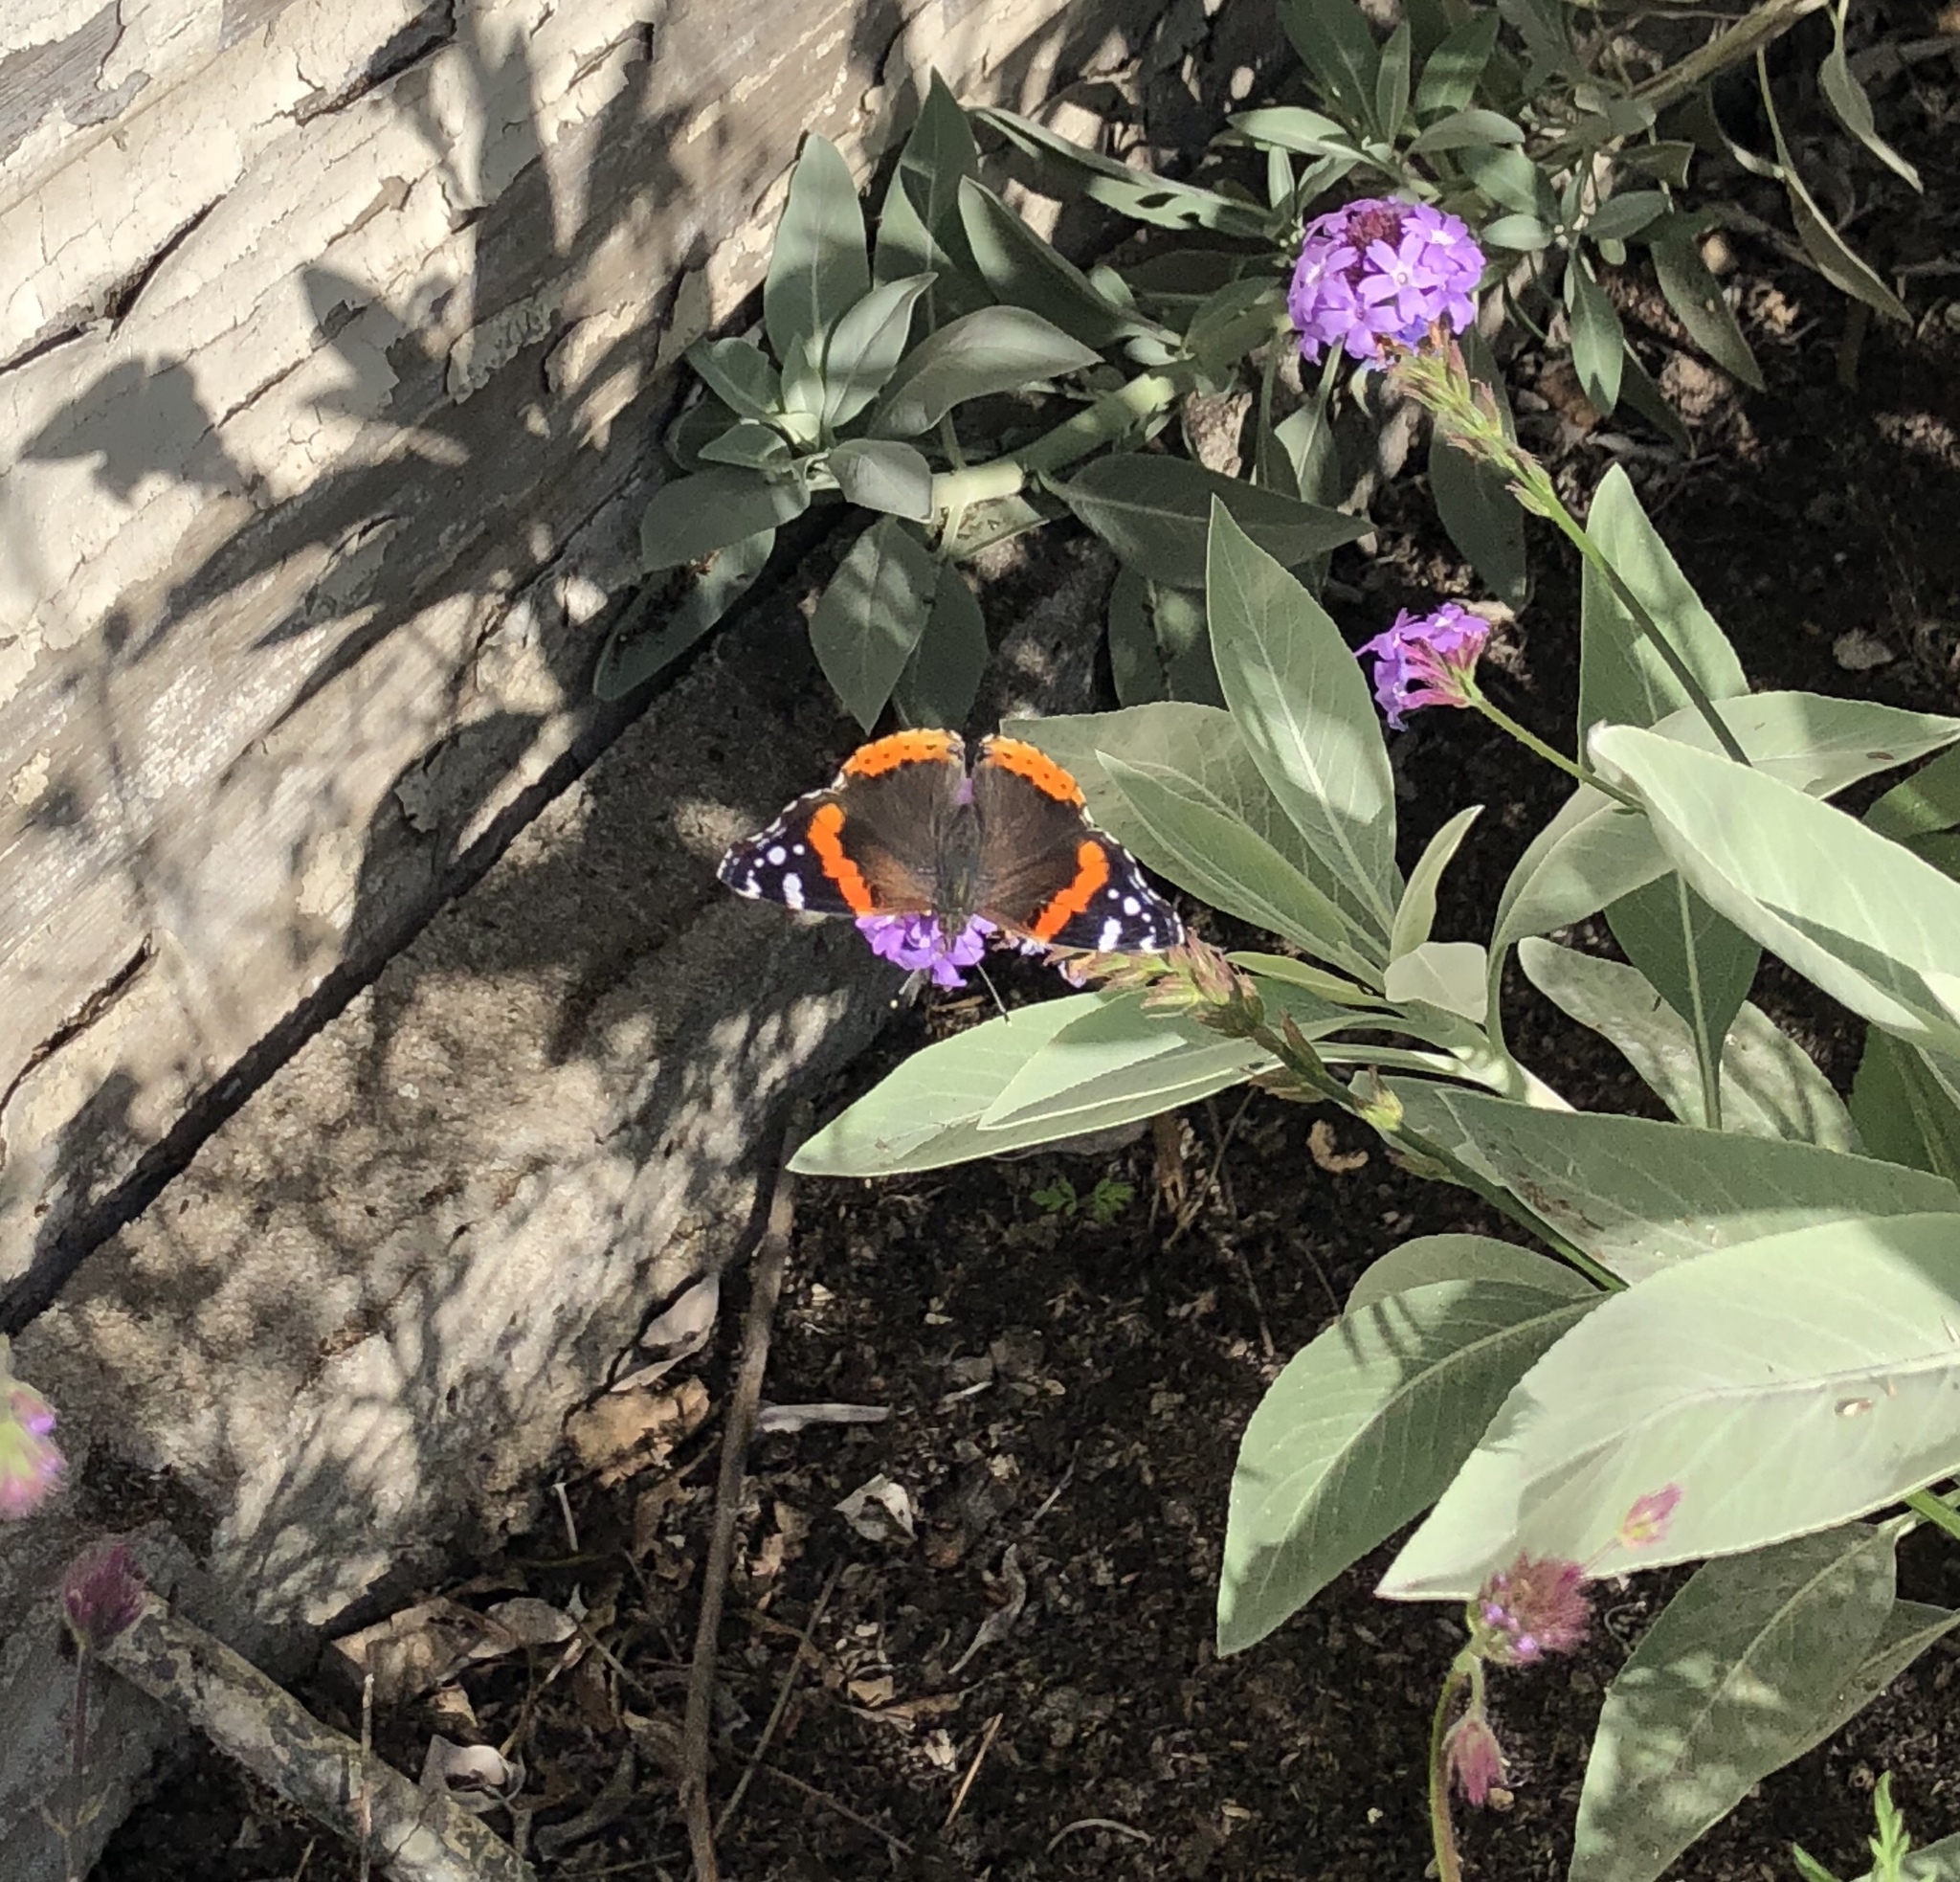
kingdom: Animalia
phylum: Arthropoda
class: Insecta
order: Lepidoptera
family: Nymphalidae
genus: Vanessa
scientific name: Vanessa atalanta
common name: Red admiral
